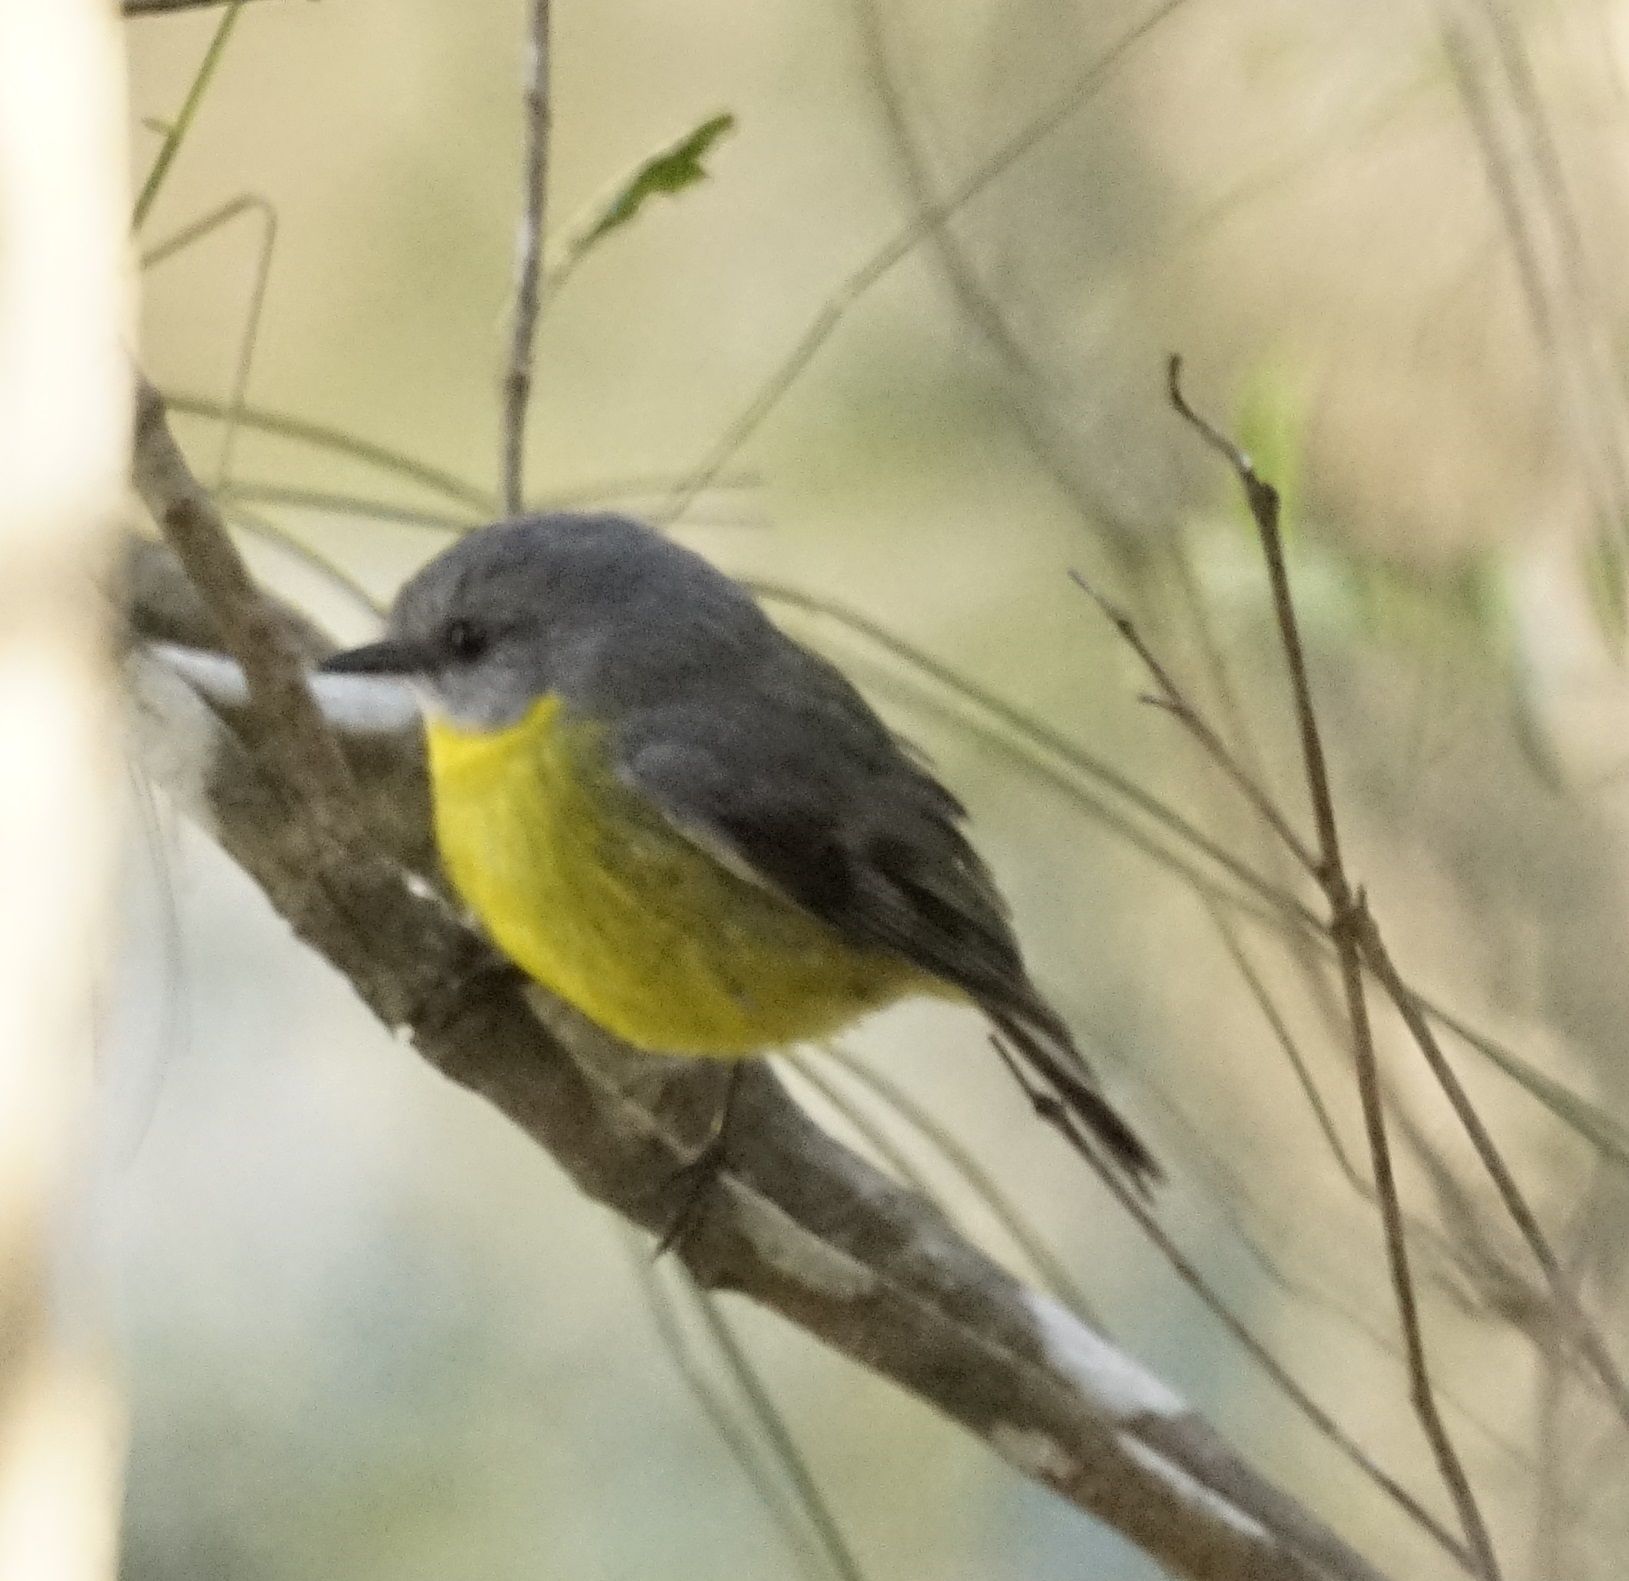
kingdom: Animalia
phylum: Chordata
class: Aves
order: Passeriformes
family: Petroicidae
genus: Eopsaltria
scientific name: Eopsaltria australis
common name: Eastern yellow robin
